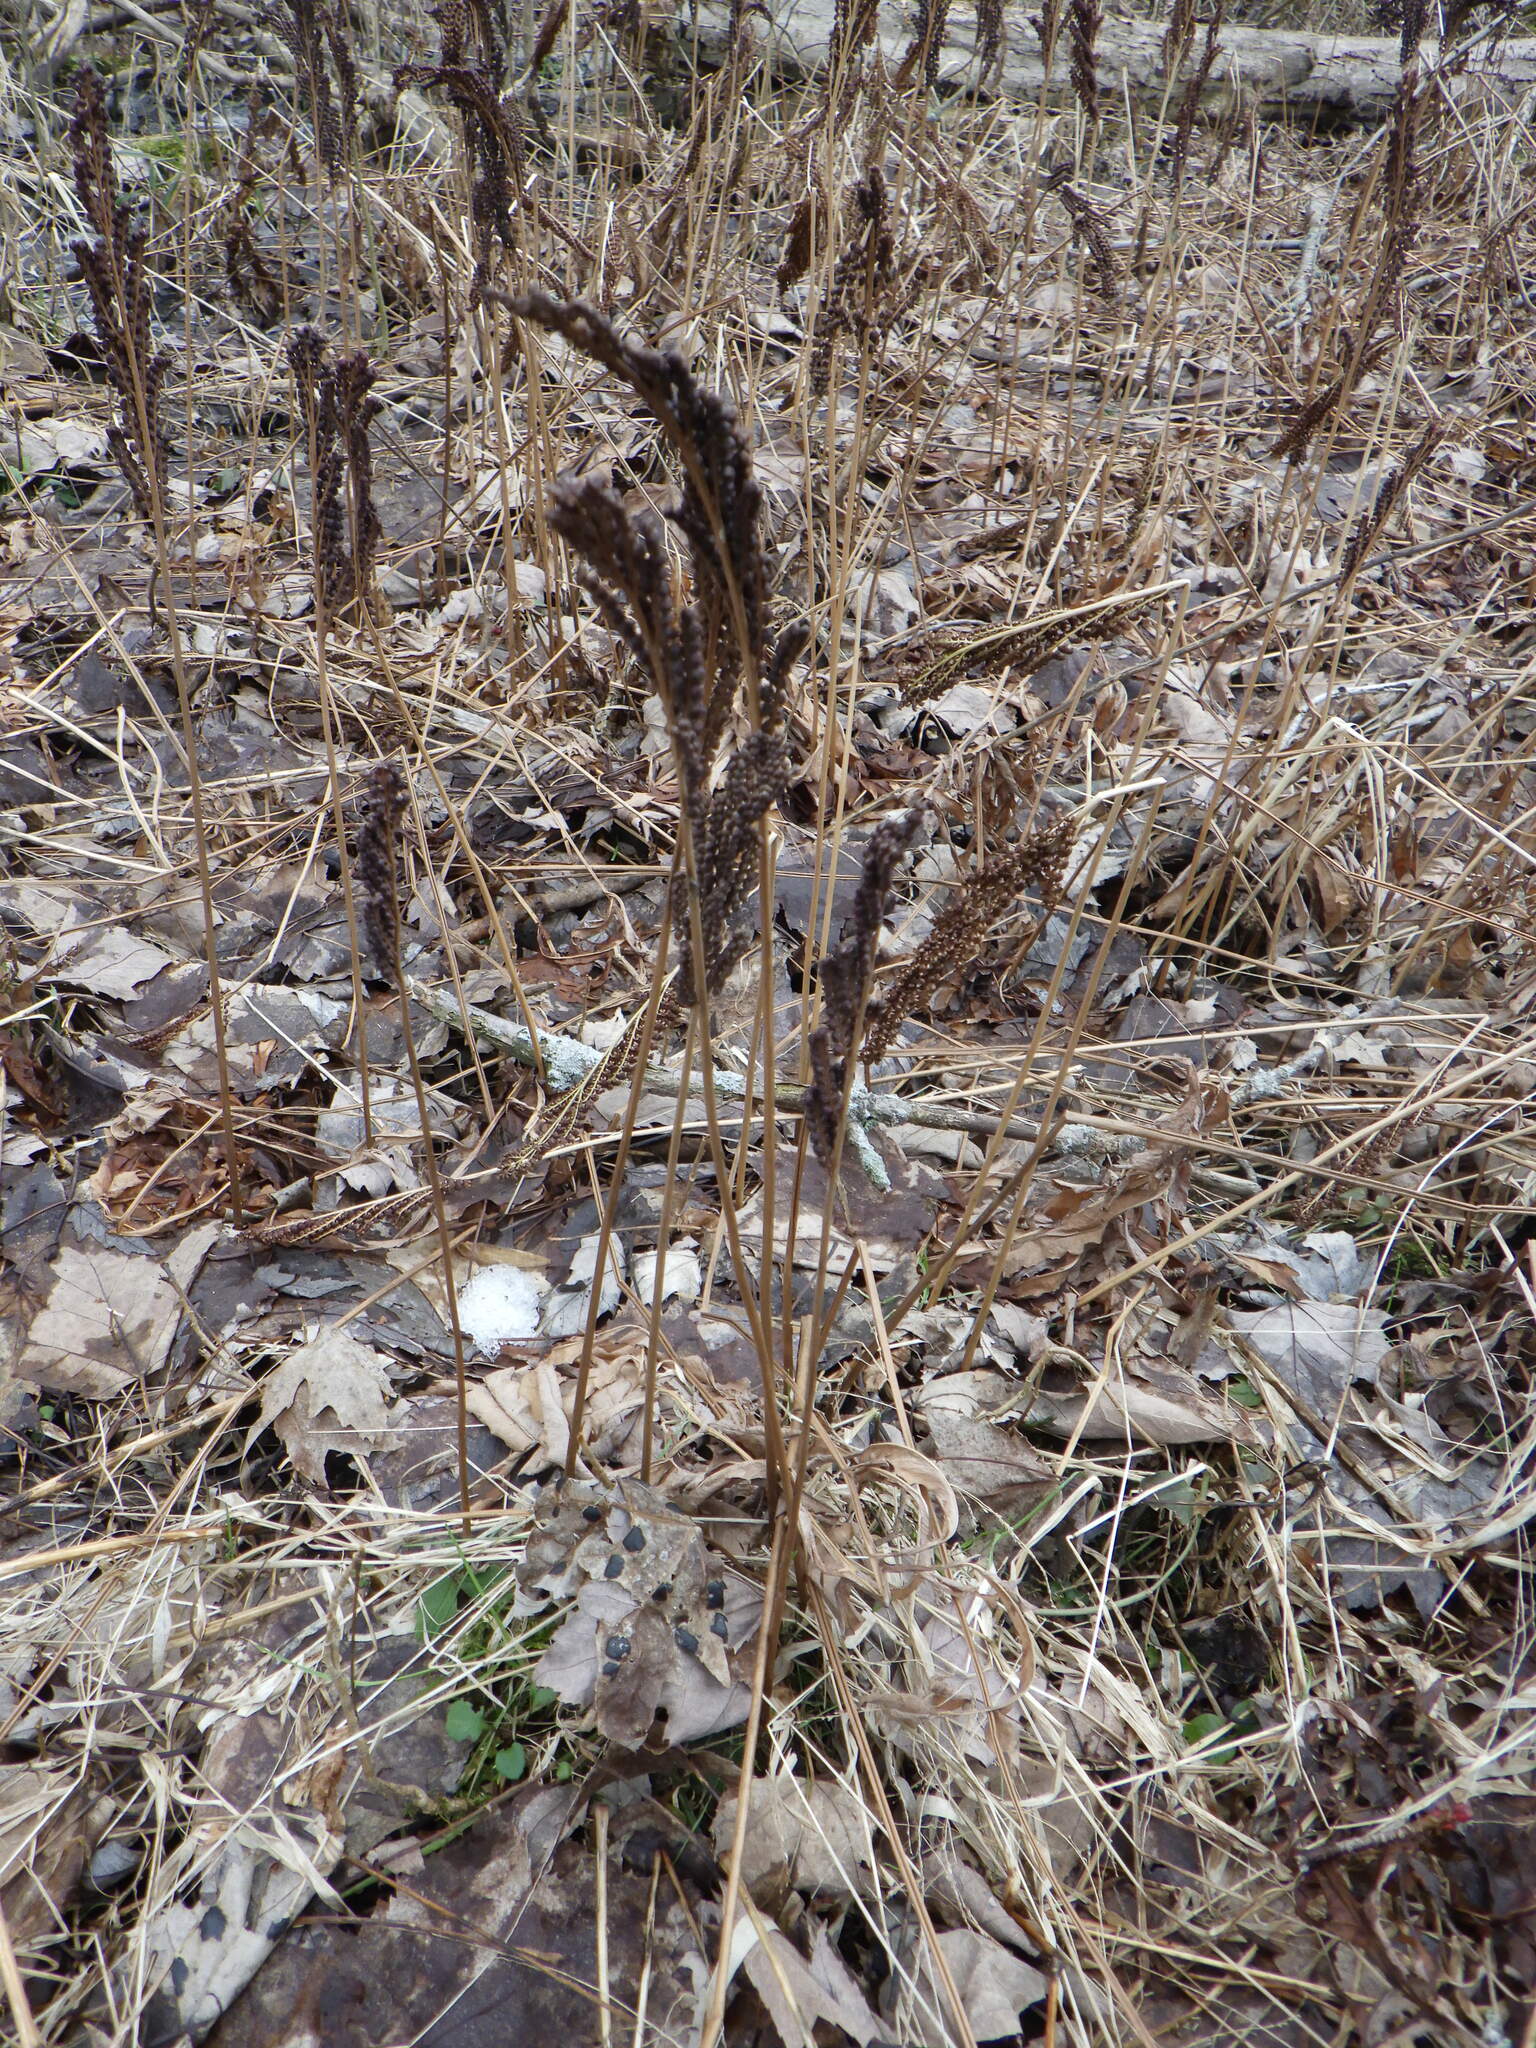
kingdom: Plantae
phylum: Tracheophyta
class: Polypodiopsida
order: Polypodiales
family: Onocleaceae
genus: Onoclea
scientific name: Onoclea sensibilis
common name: Sensitive fern
